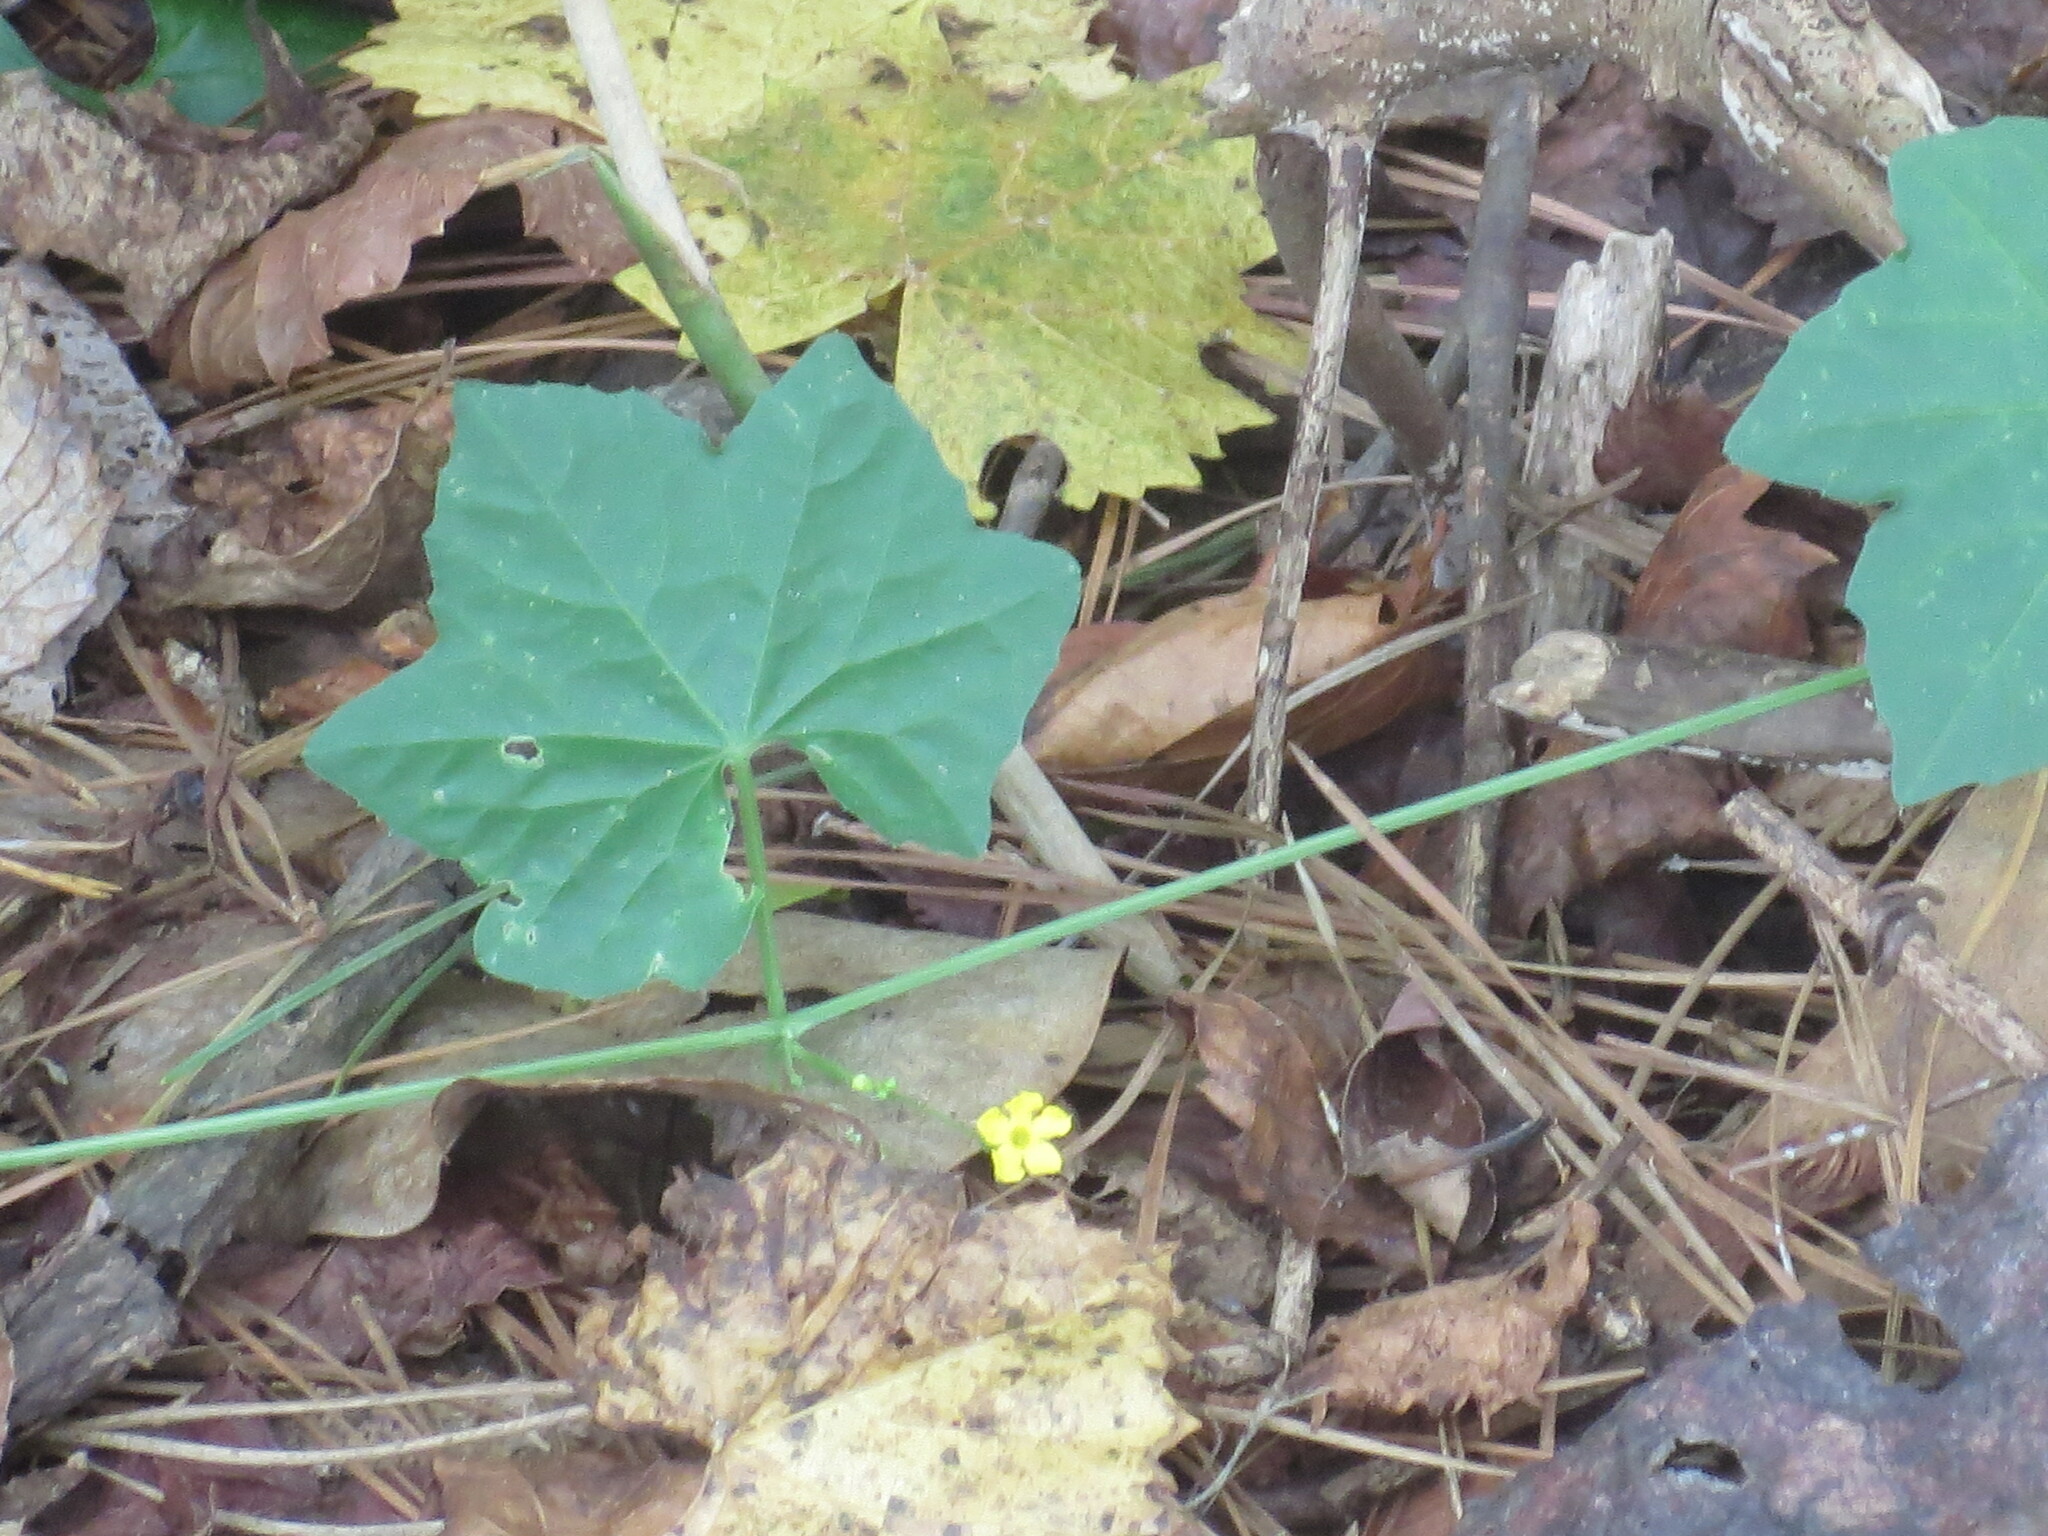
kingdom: Plantae
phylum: Tracheophyta
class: Magnoliopsida
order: Cucurbitales
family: Cucurbitaceae
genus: Melothria
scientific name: Melothria pendula
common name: Creeping-cucumber
